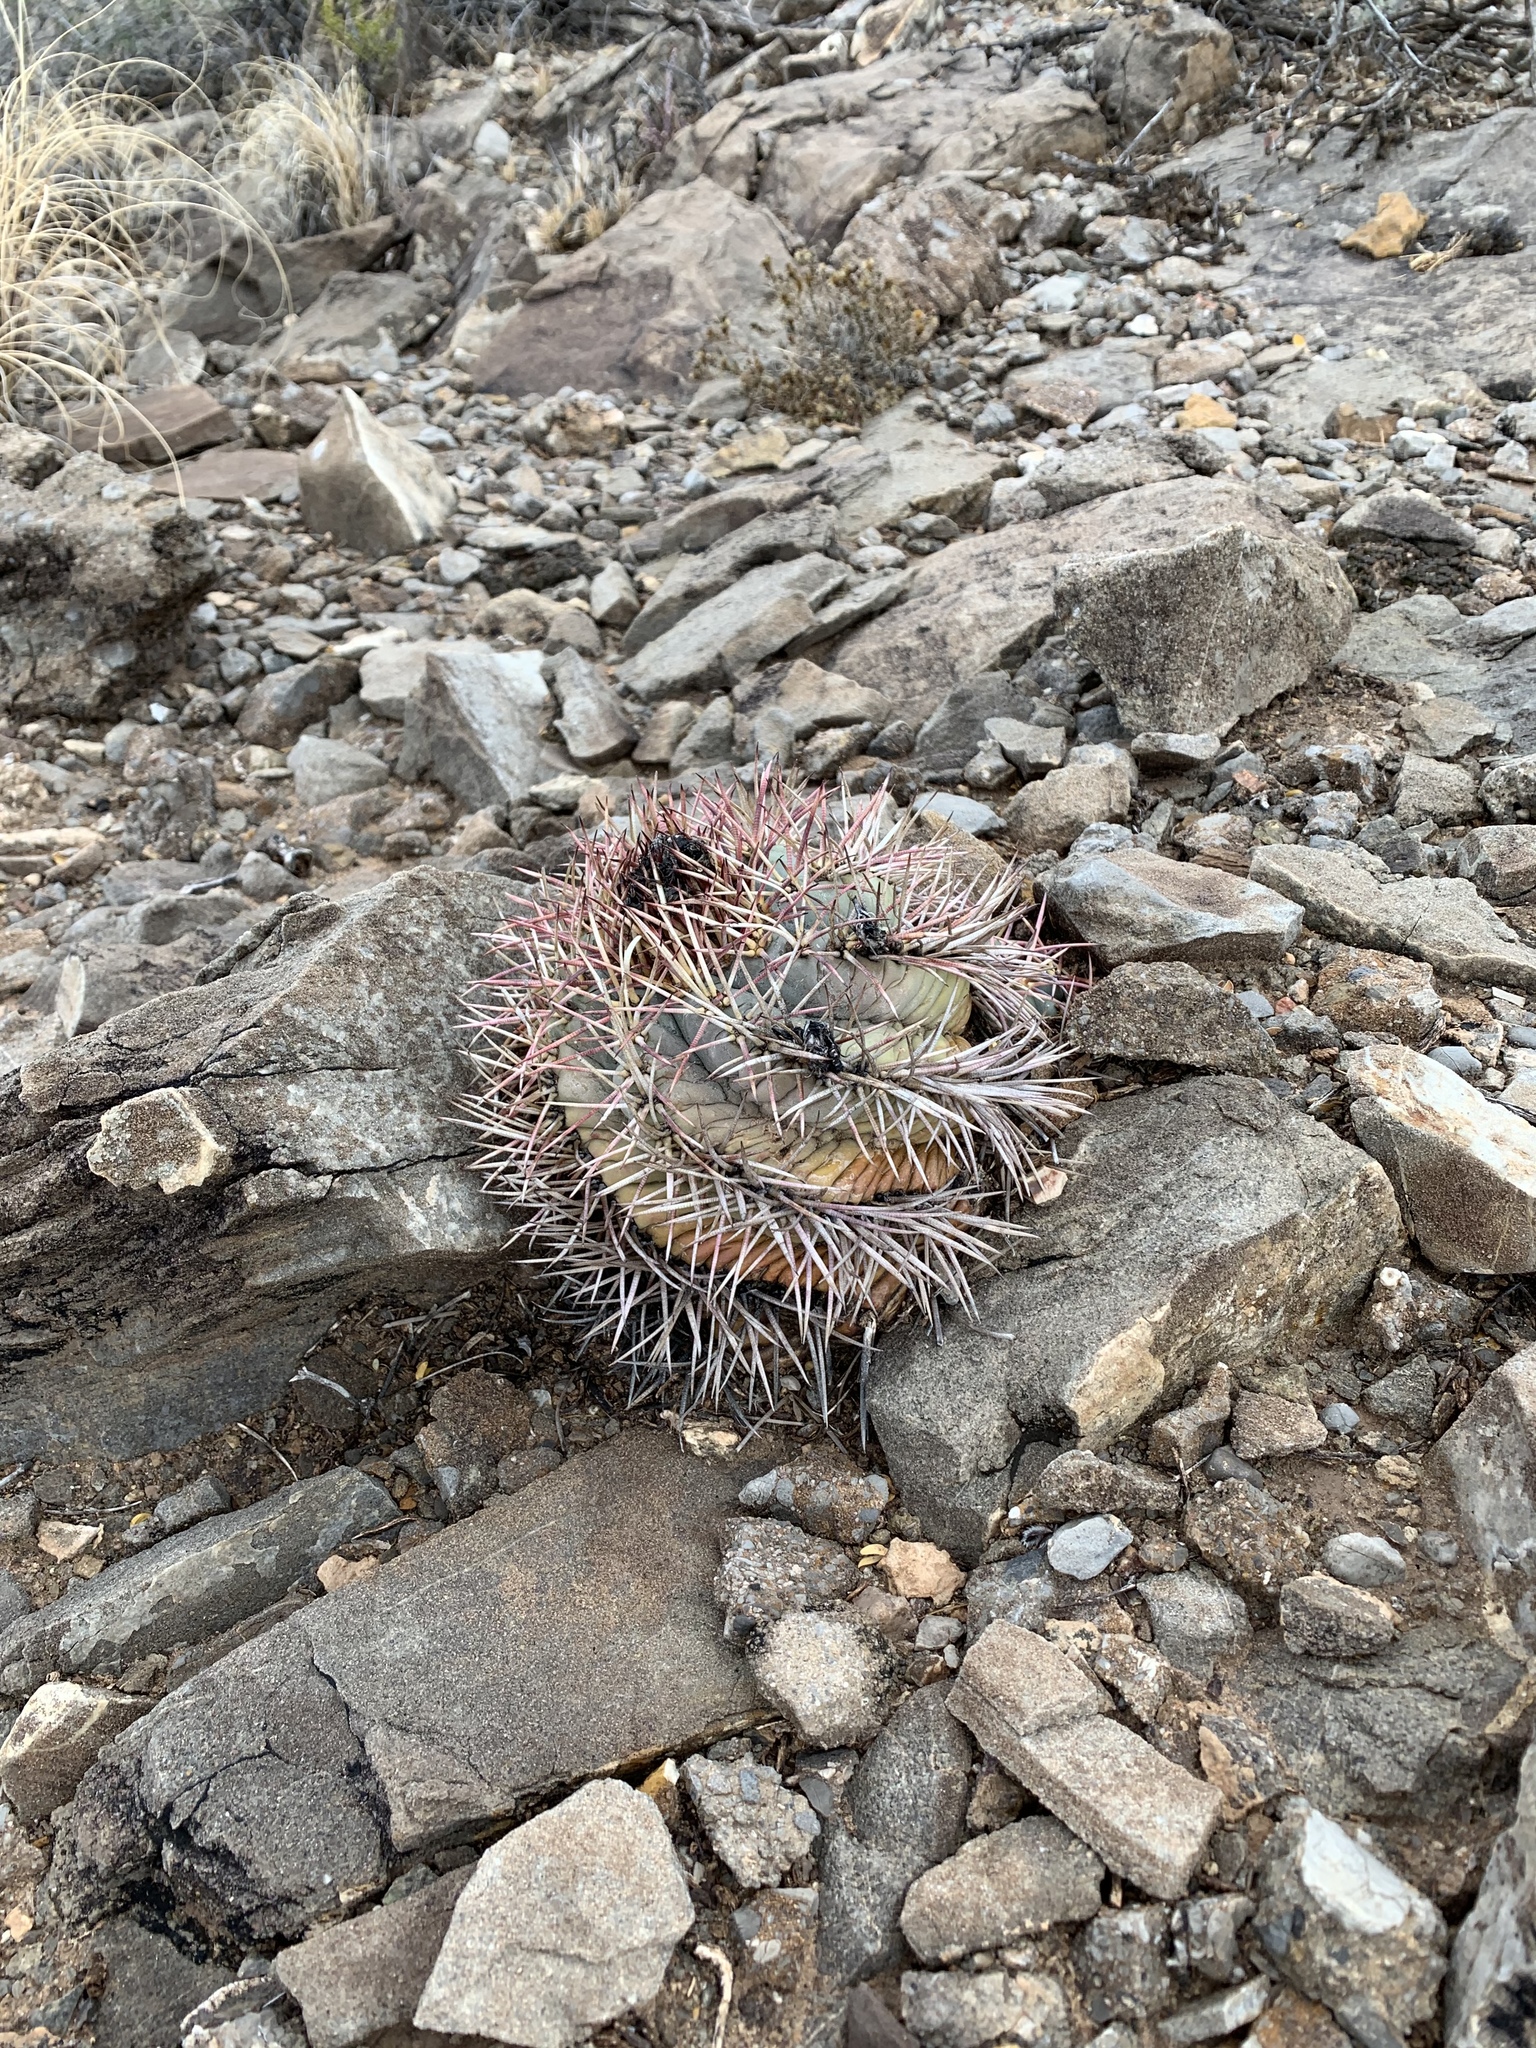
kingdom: Plantae
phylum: Tracheophyta
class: Magnoliopsida
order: Caryophyllales
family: Cactaceae
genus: Echinocactus
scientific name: Echinocactus horizonthalonius
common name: Devilshead
